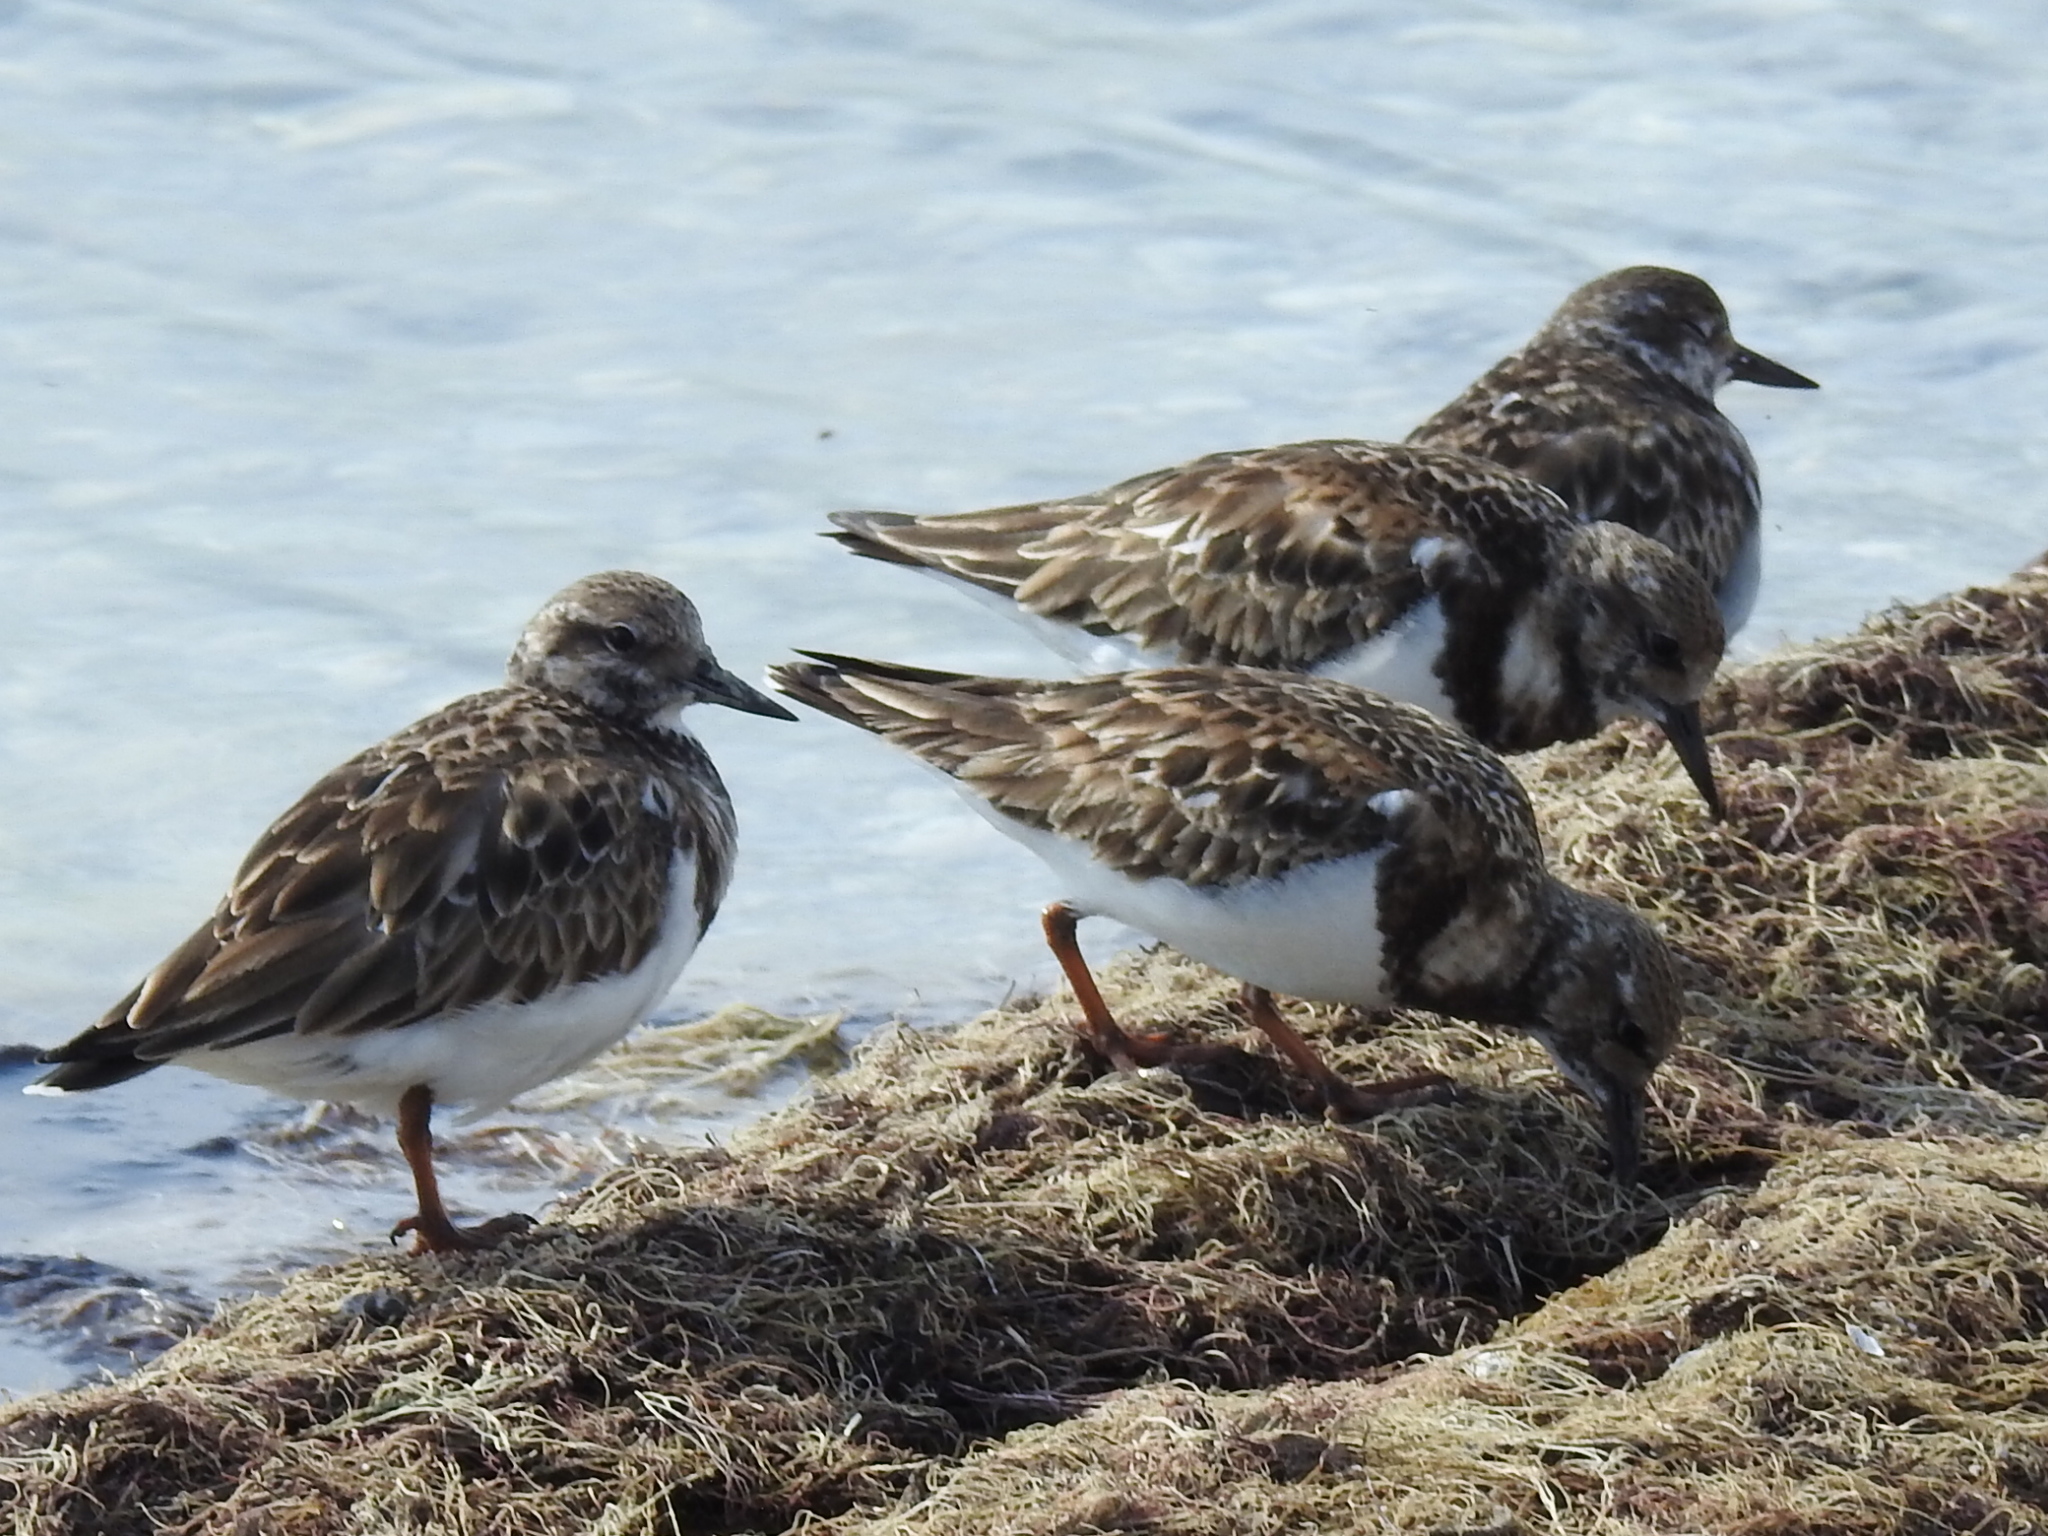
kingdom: Animalia
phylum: Chordata
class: Aves
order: Charadriiformes
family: Scolopacidae
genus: Arenaria
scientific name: Arenaria interpres
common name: Ruddy turnstone
